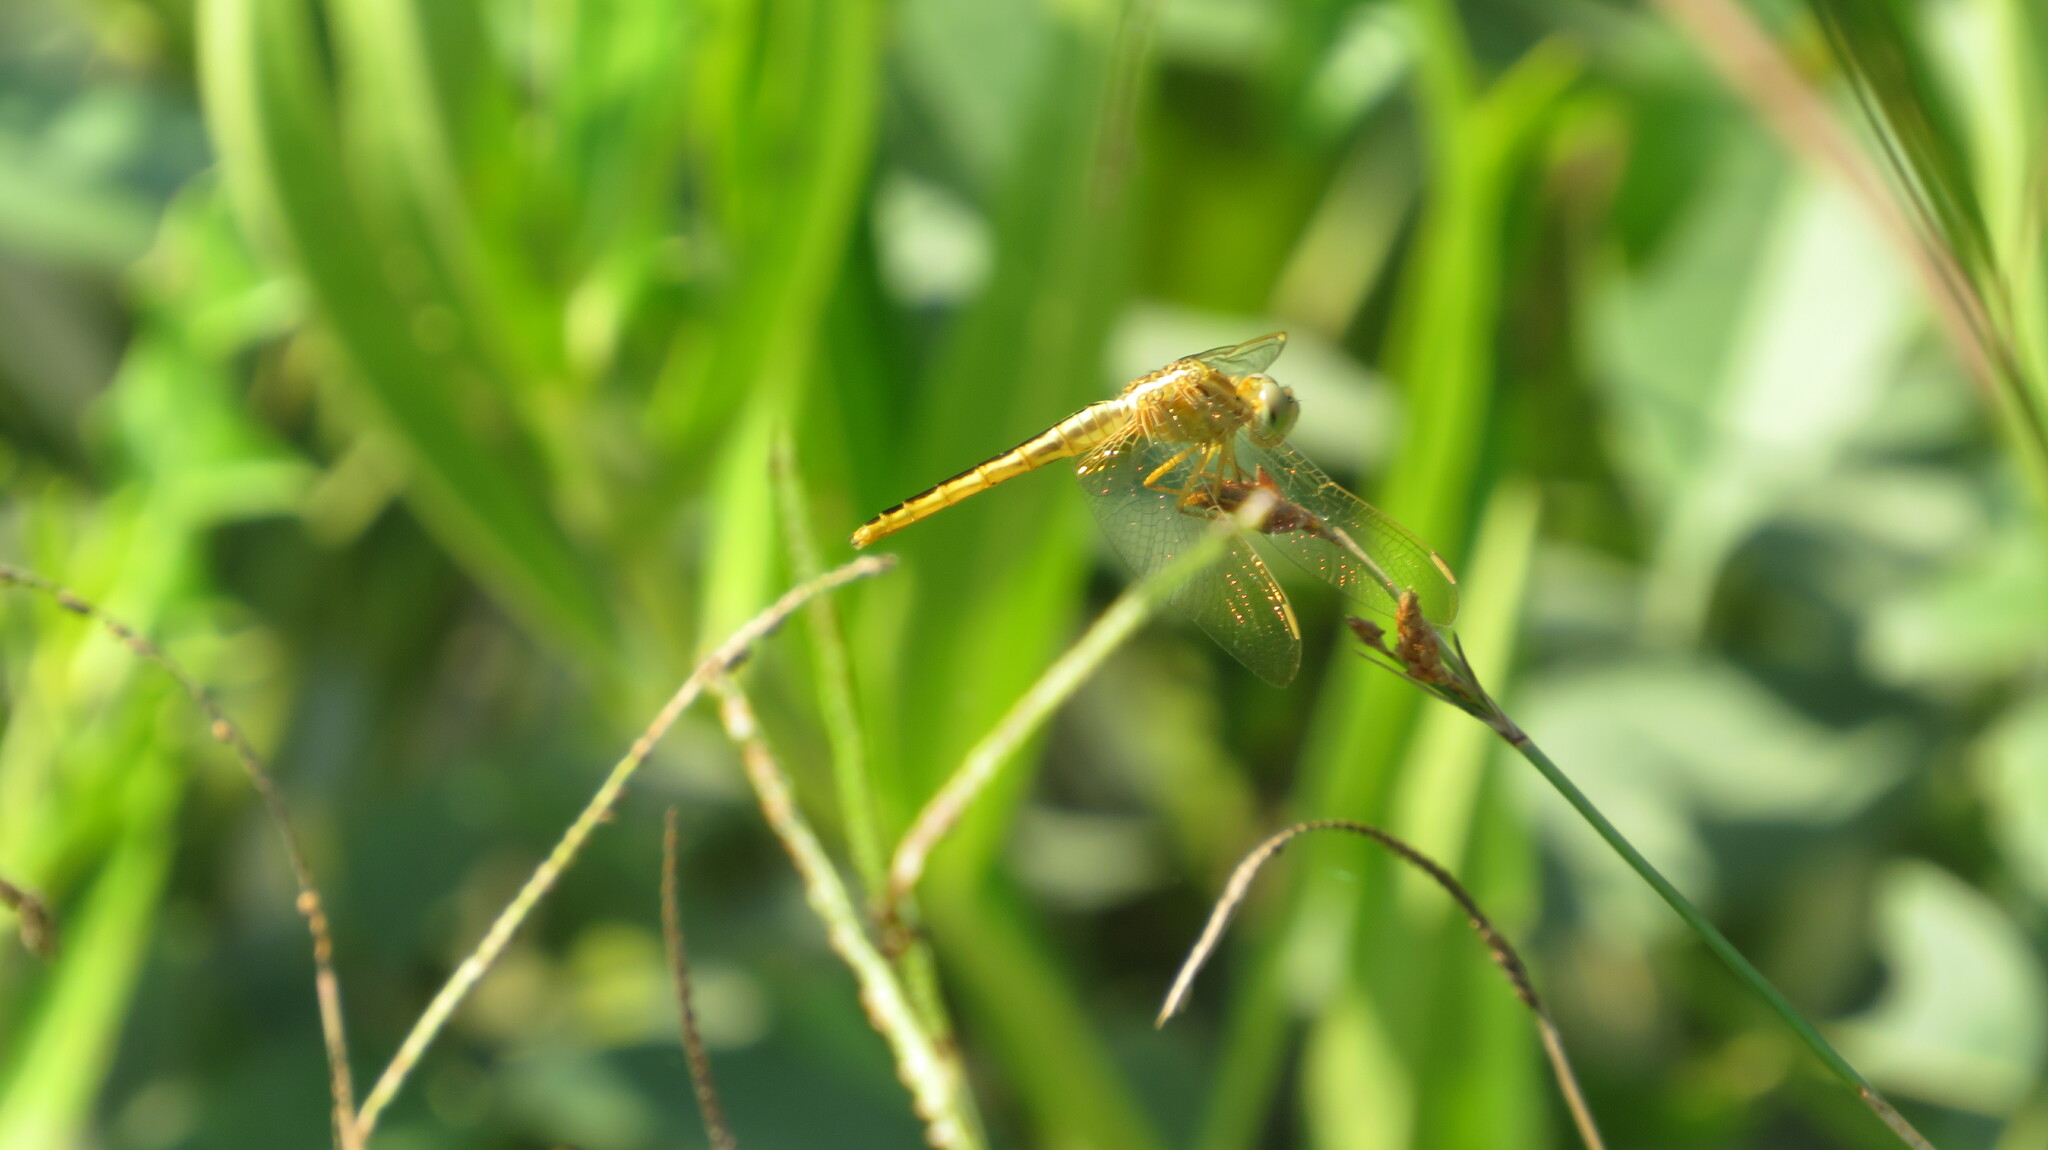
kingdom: Animalia
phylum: Arthropoda
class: Insecta
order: Odonata
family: Libellulidae
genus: Crocothemis
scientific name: Crocothemis servilia
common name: Scarlet skimmer
